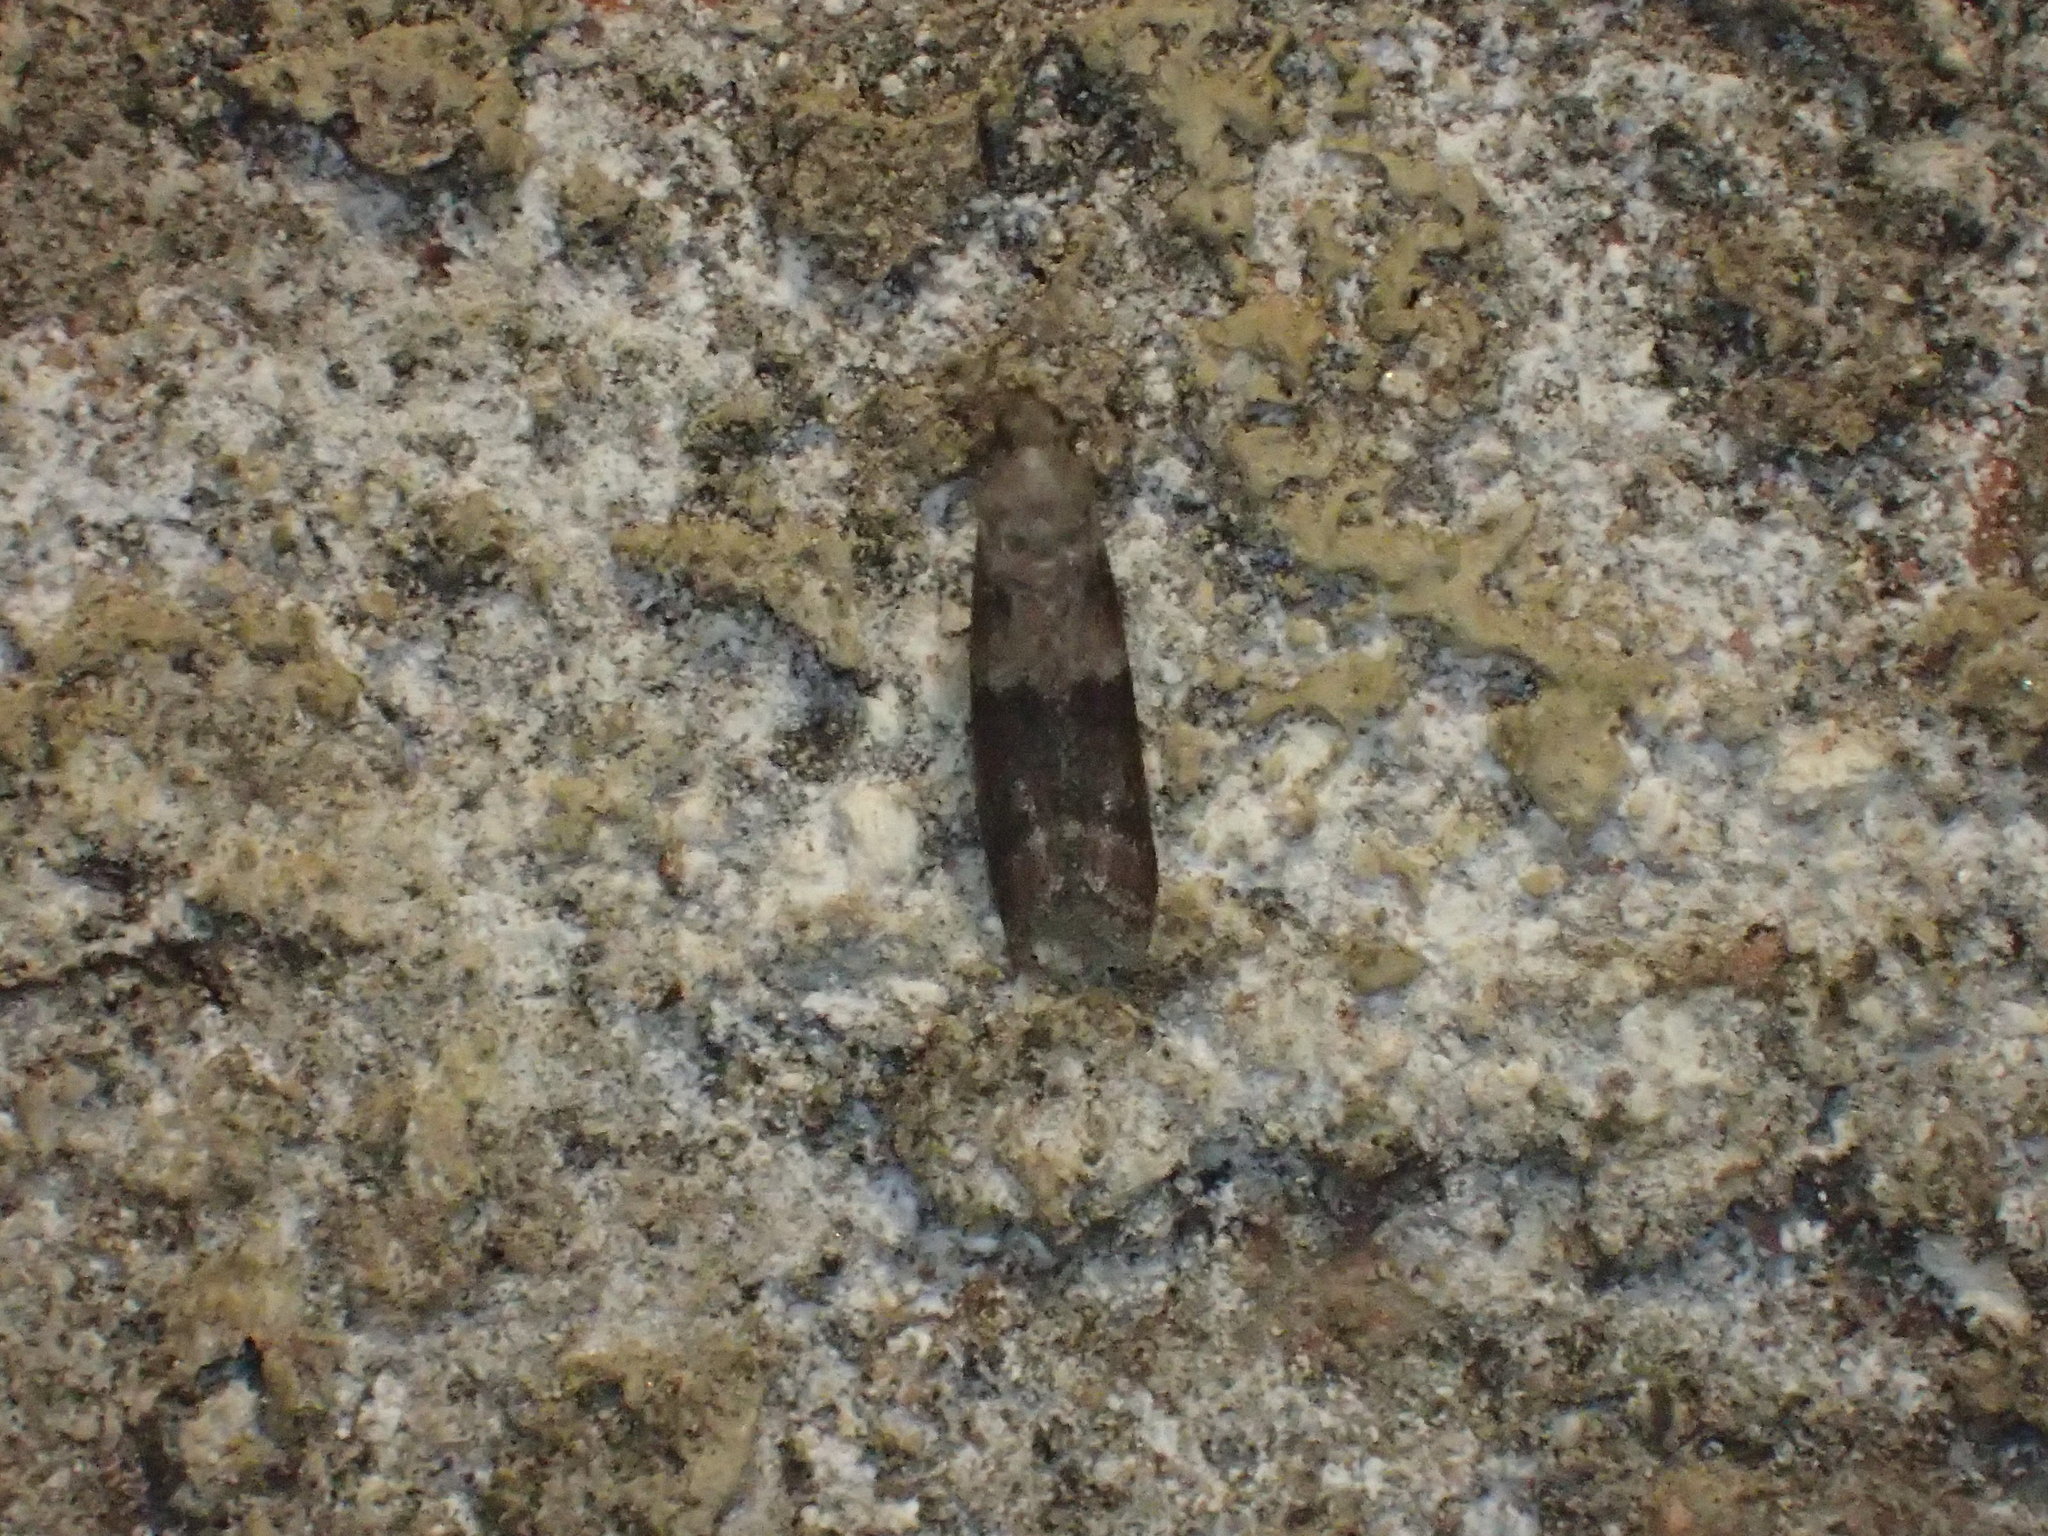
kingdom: Animalia
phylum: Arthropoda
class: Insecta
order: Lepidoptera
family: Pyralidae
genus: Ephestiodes
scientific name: Ephestiodes infimella
